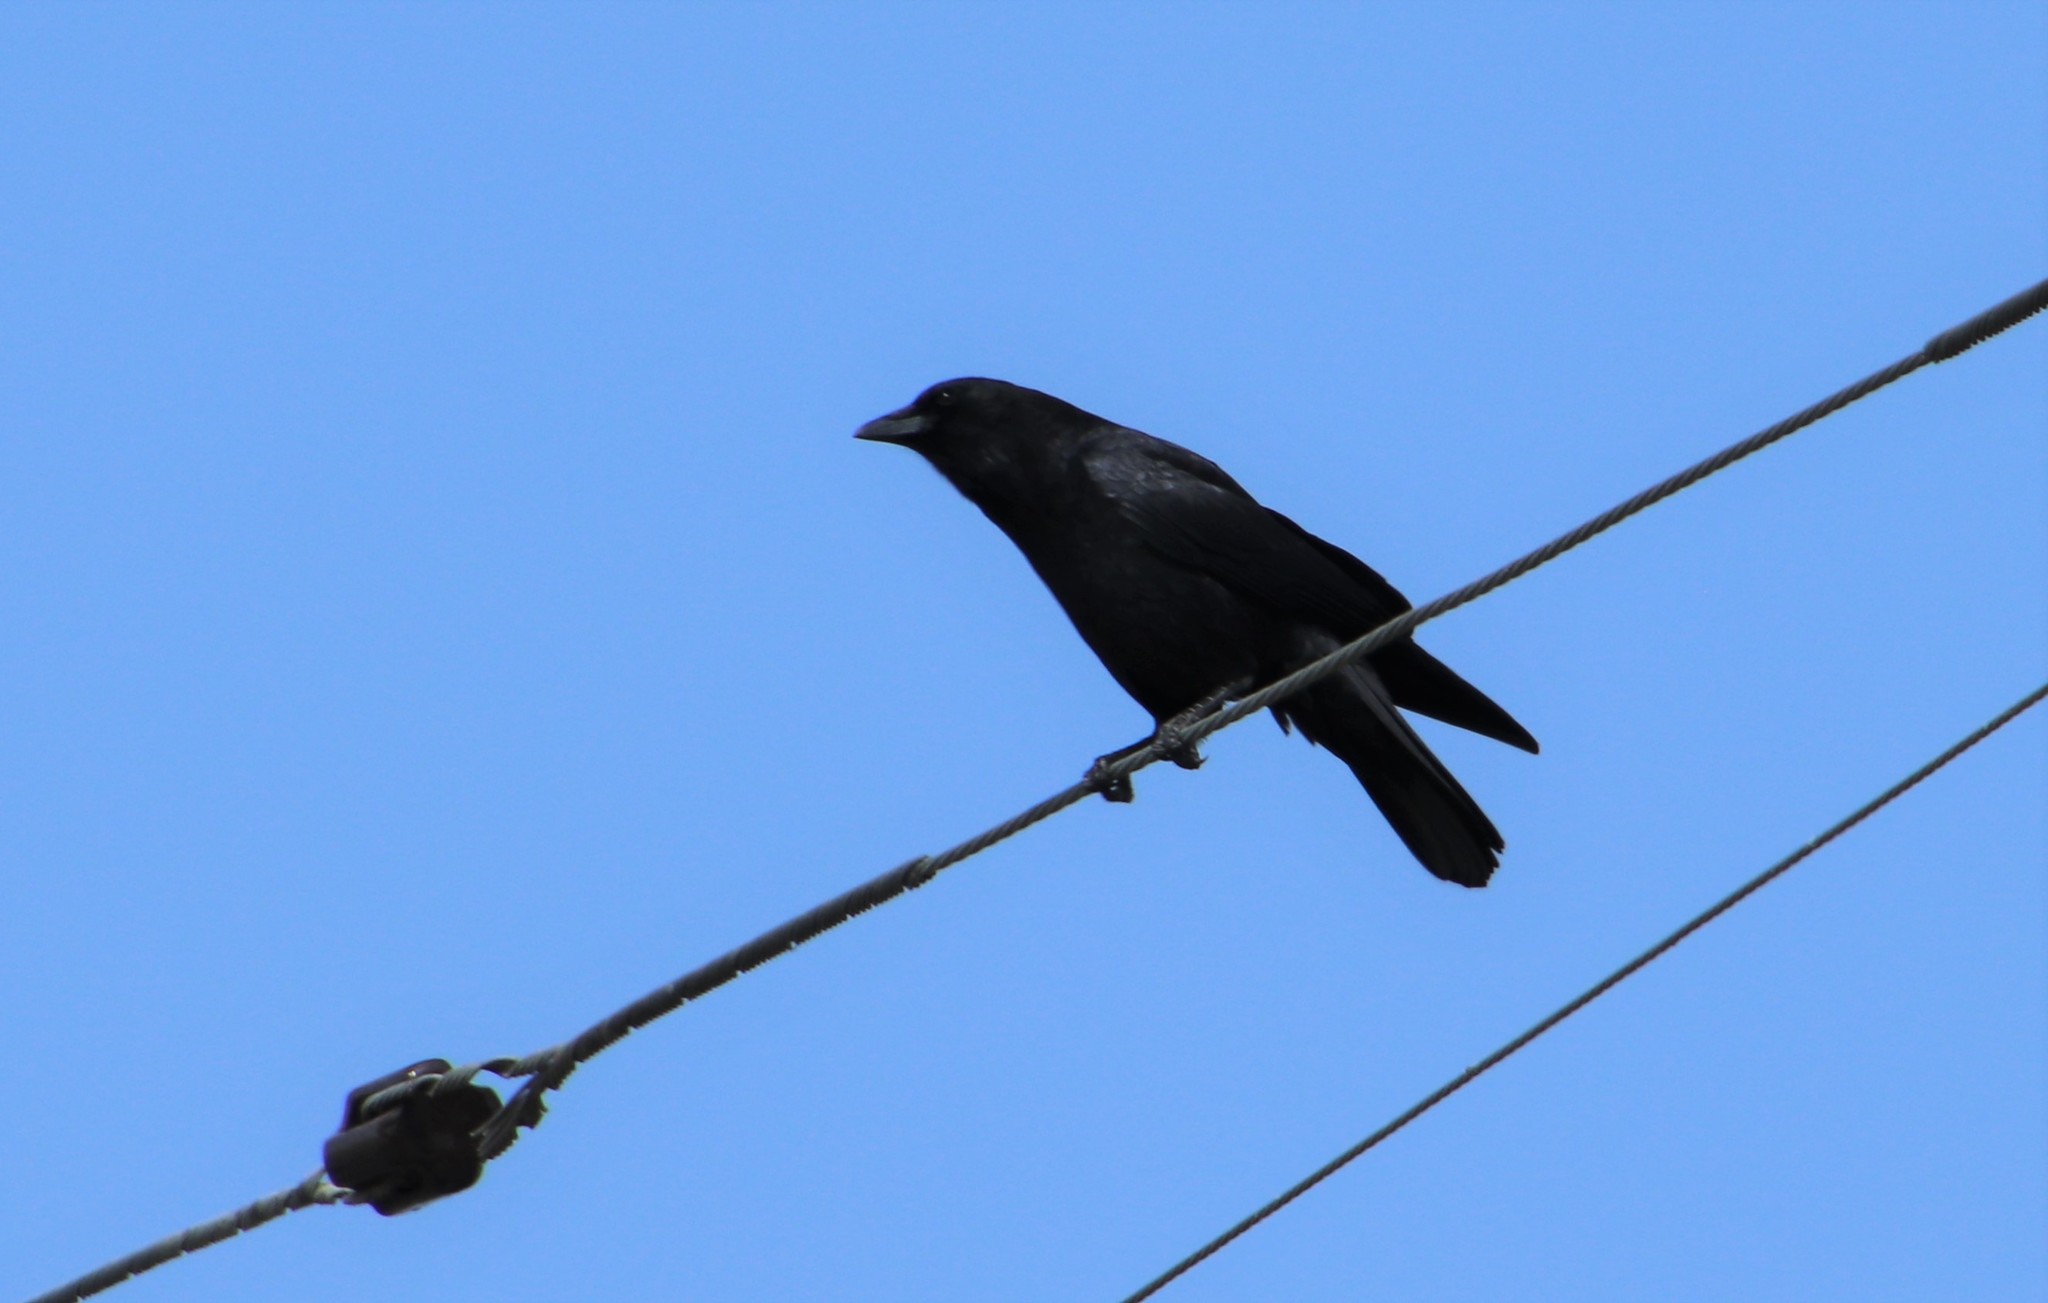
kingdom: Animalia
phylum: Chordata
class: Aves
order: Passeriformes
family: Corvidae
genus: Corvus
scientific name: Corvus brachyrhynchos
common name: American crow
